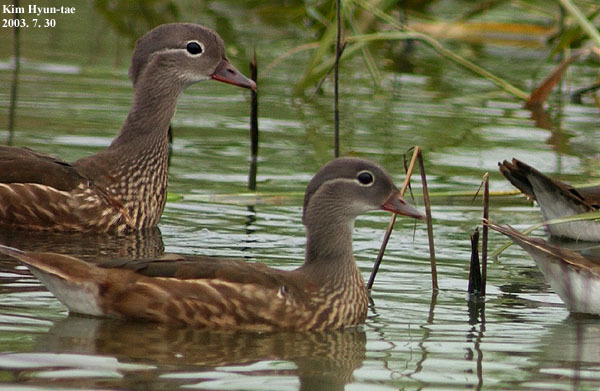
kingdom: Animalia
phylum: Chordata
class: Aves
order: Anseriformes
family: Anatidae
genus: Aix
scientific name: Aix galericulata
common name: Mandarin duck
